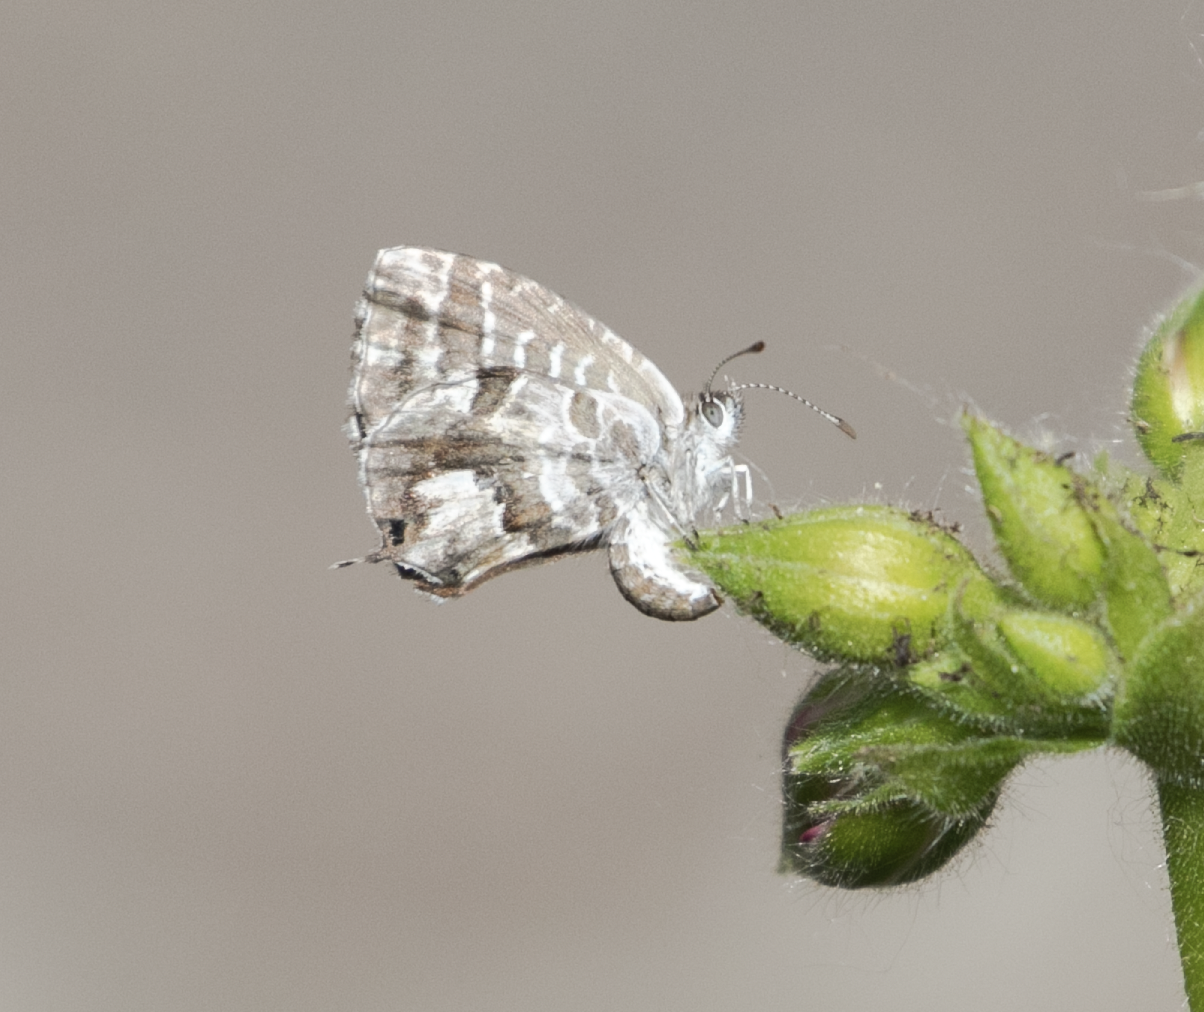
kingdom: Animalia
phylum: Arthropoda
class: Insecta
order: Lepidoptera
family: Lycaenidae
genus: Cacyreus
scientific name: Cacyreus marshalli
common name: Geranium bronze
